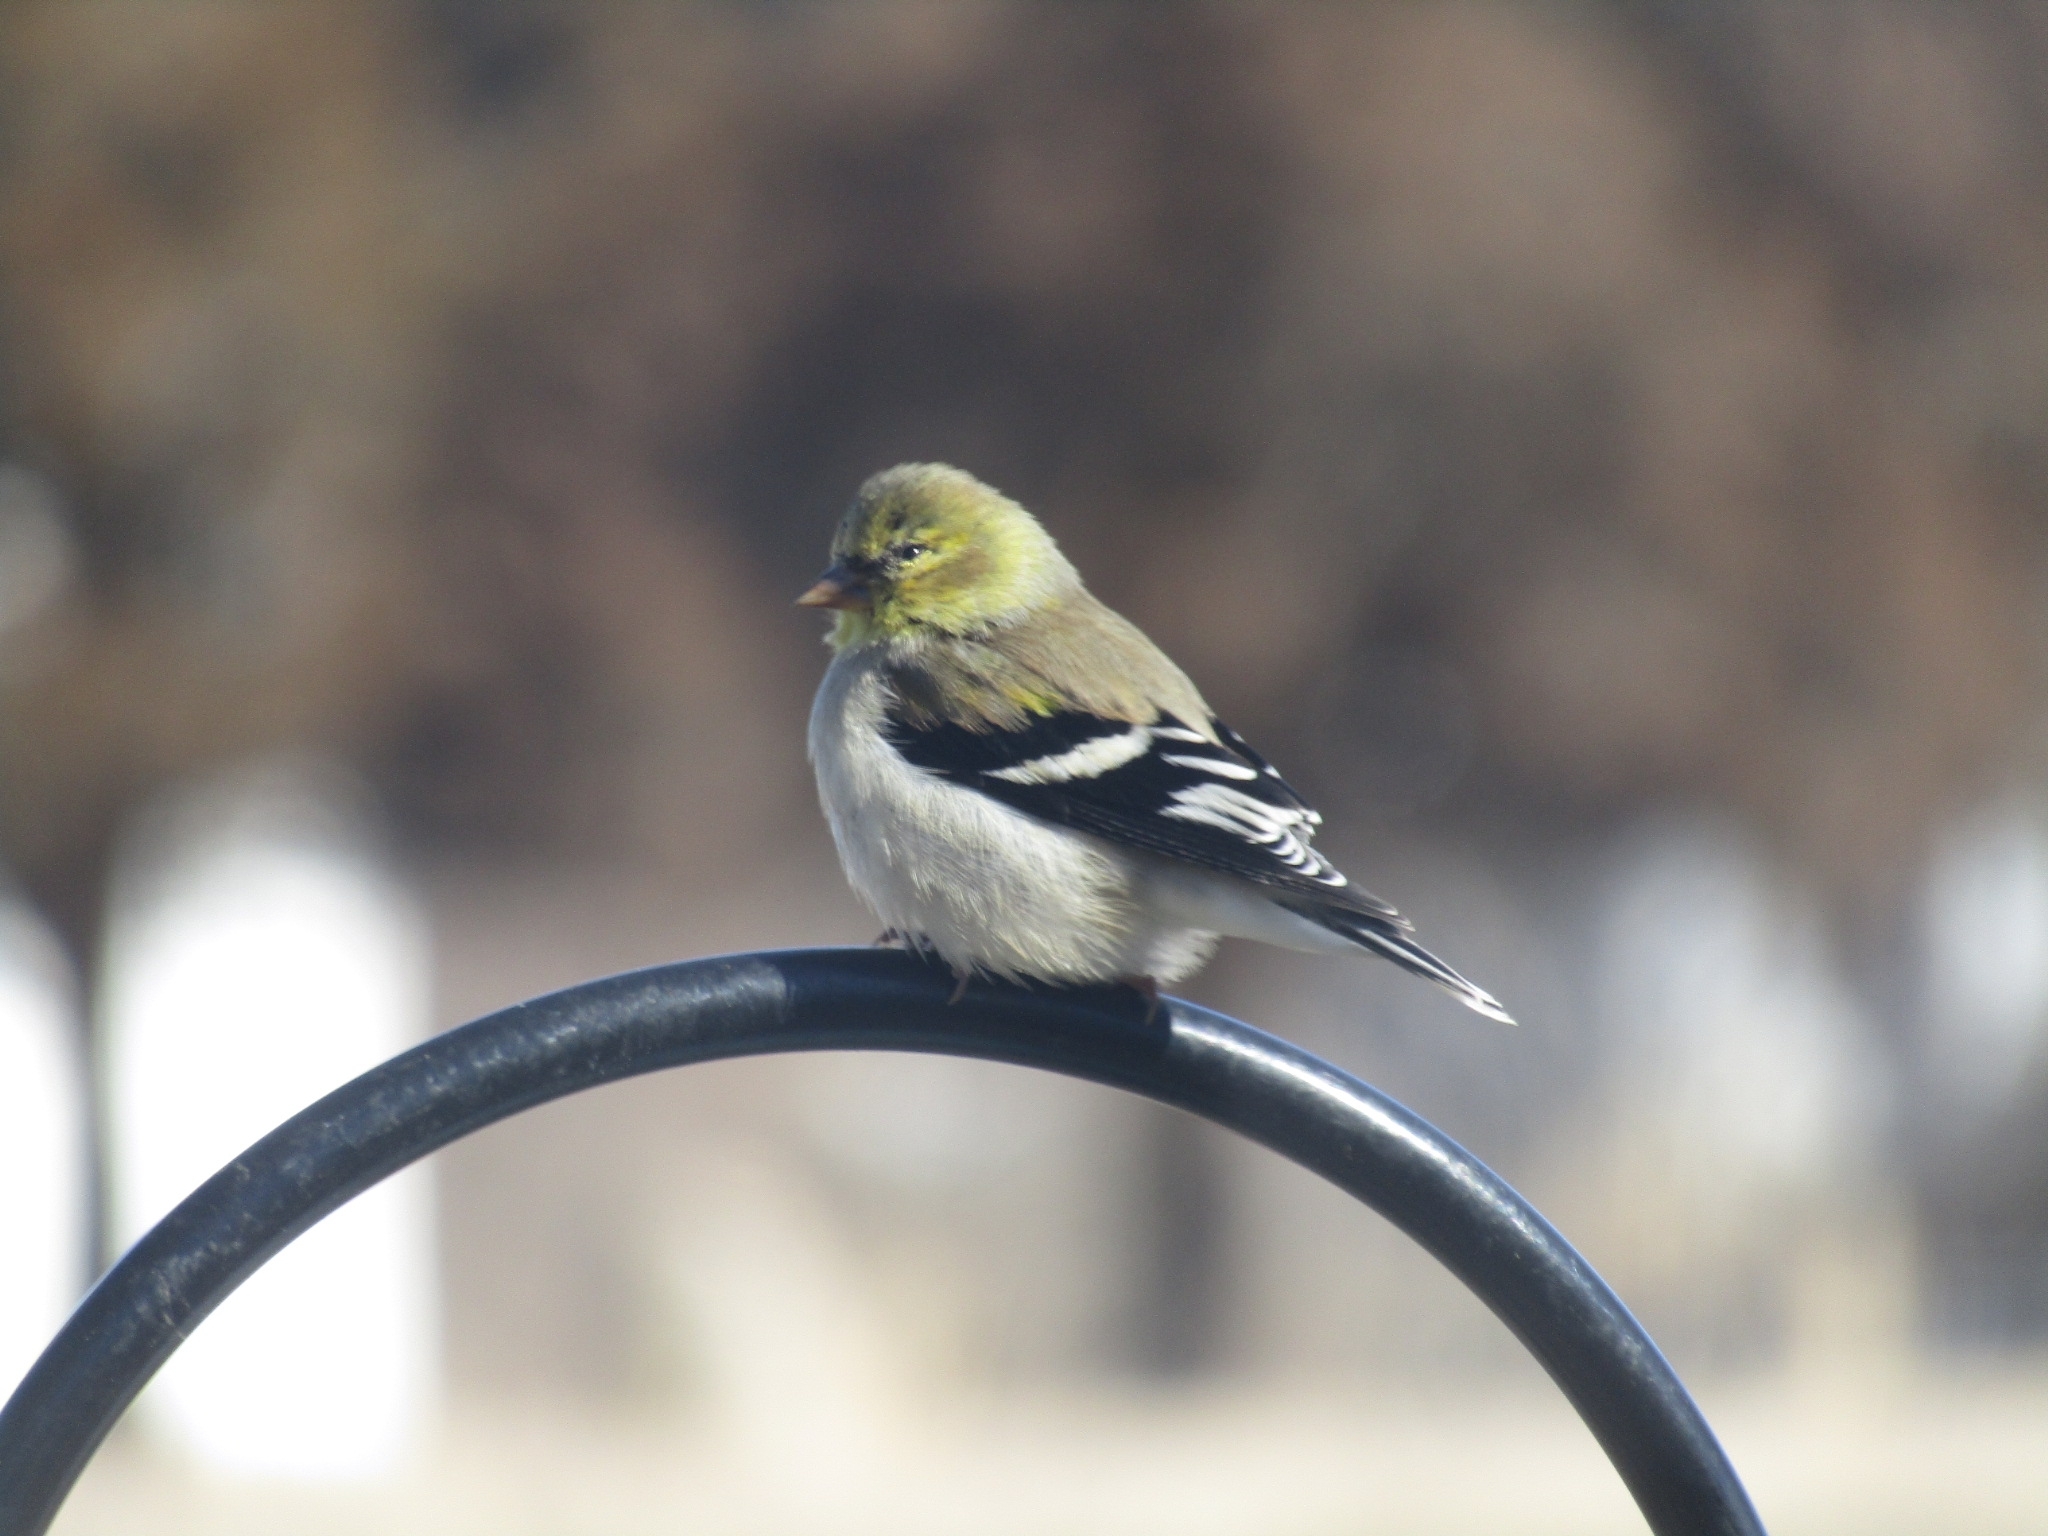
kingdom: Animalia
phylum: Chordata
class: Aves
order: Passeriformes
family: Fringillidae
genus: Spinus
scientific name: Spinus tristis
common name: American goldfinch
